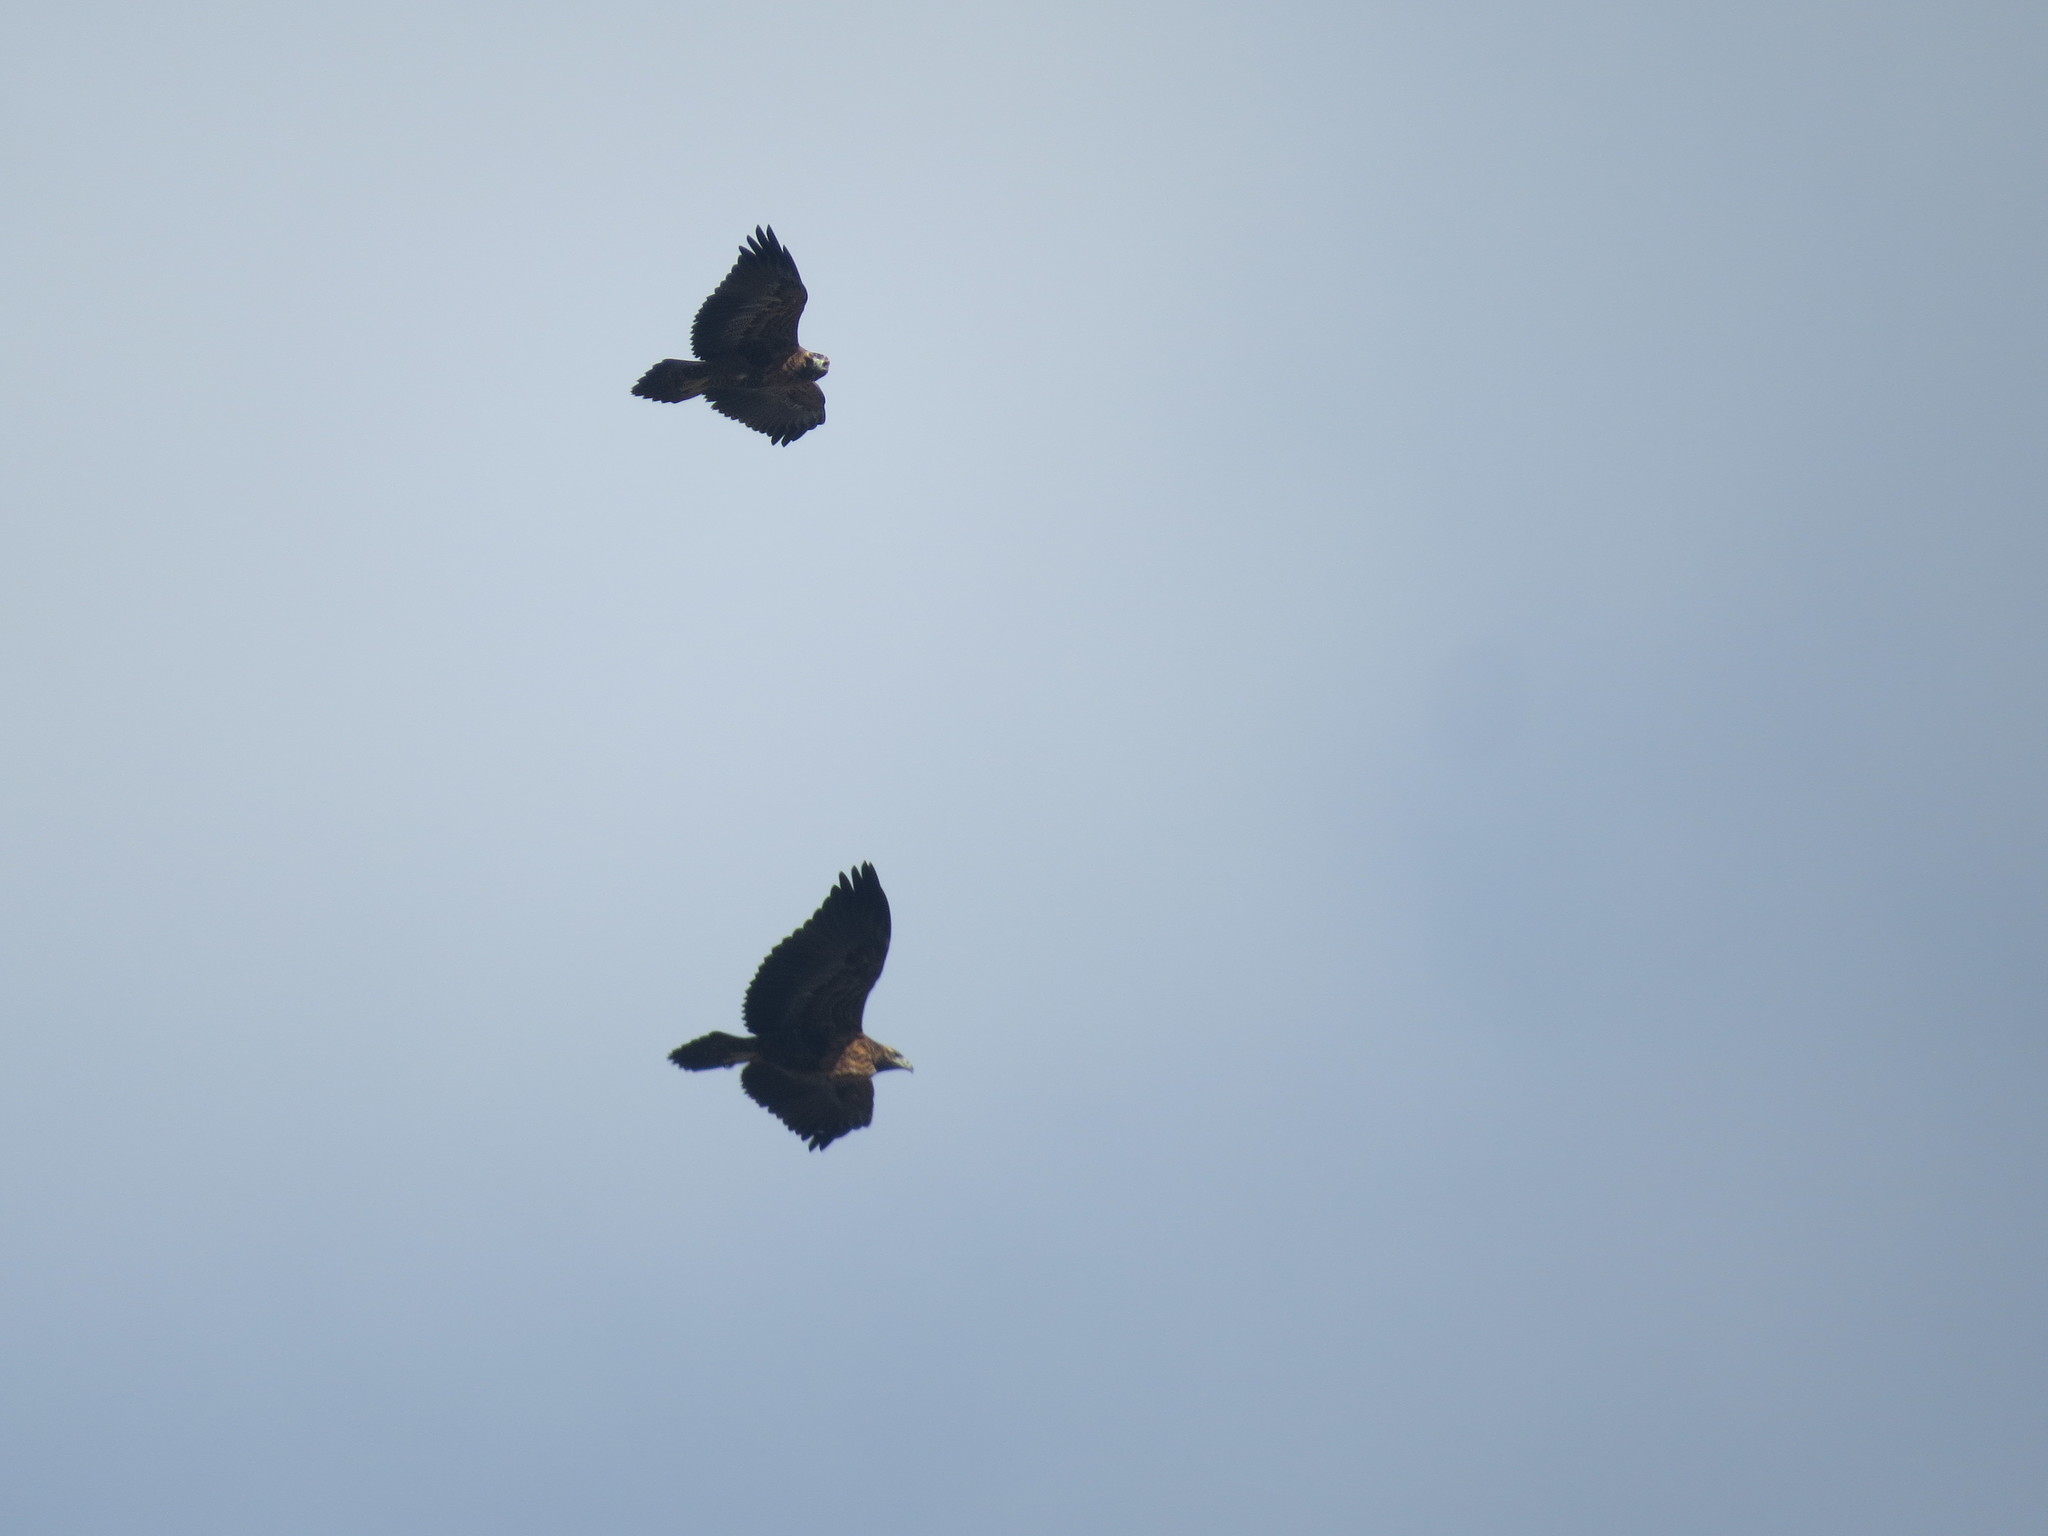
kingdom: Animalia
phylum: Chordata
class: Aves
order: Accipitriformes
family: Accipitridae
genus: Geranoaetus
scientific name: Geranoaetus melanoleucus
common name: Black-chested buzzard-eagle
